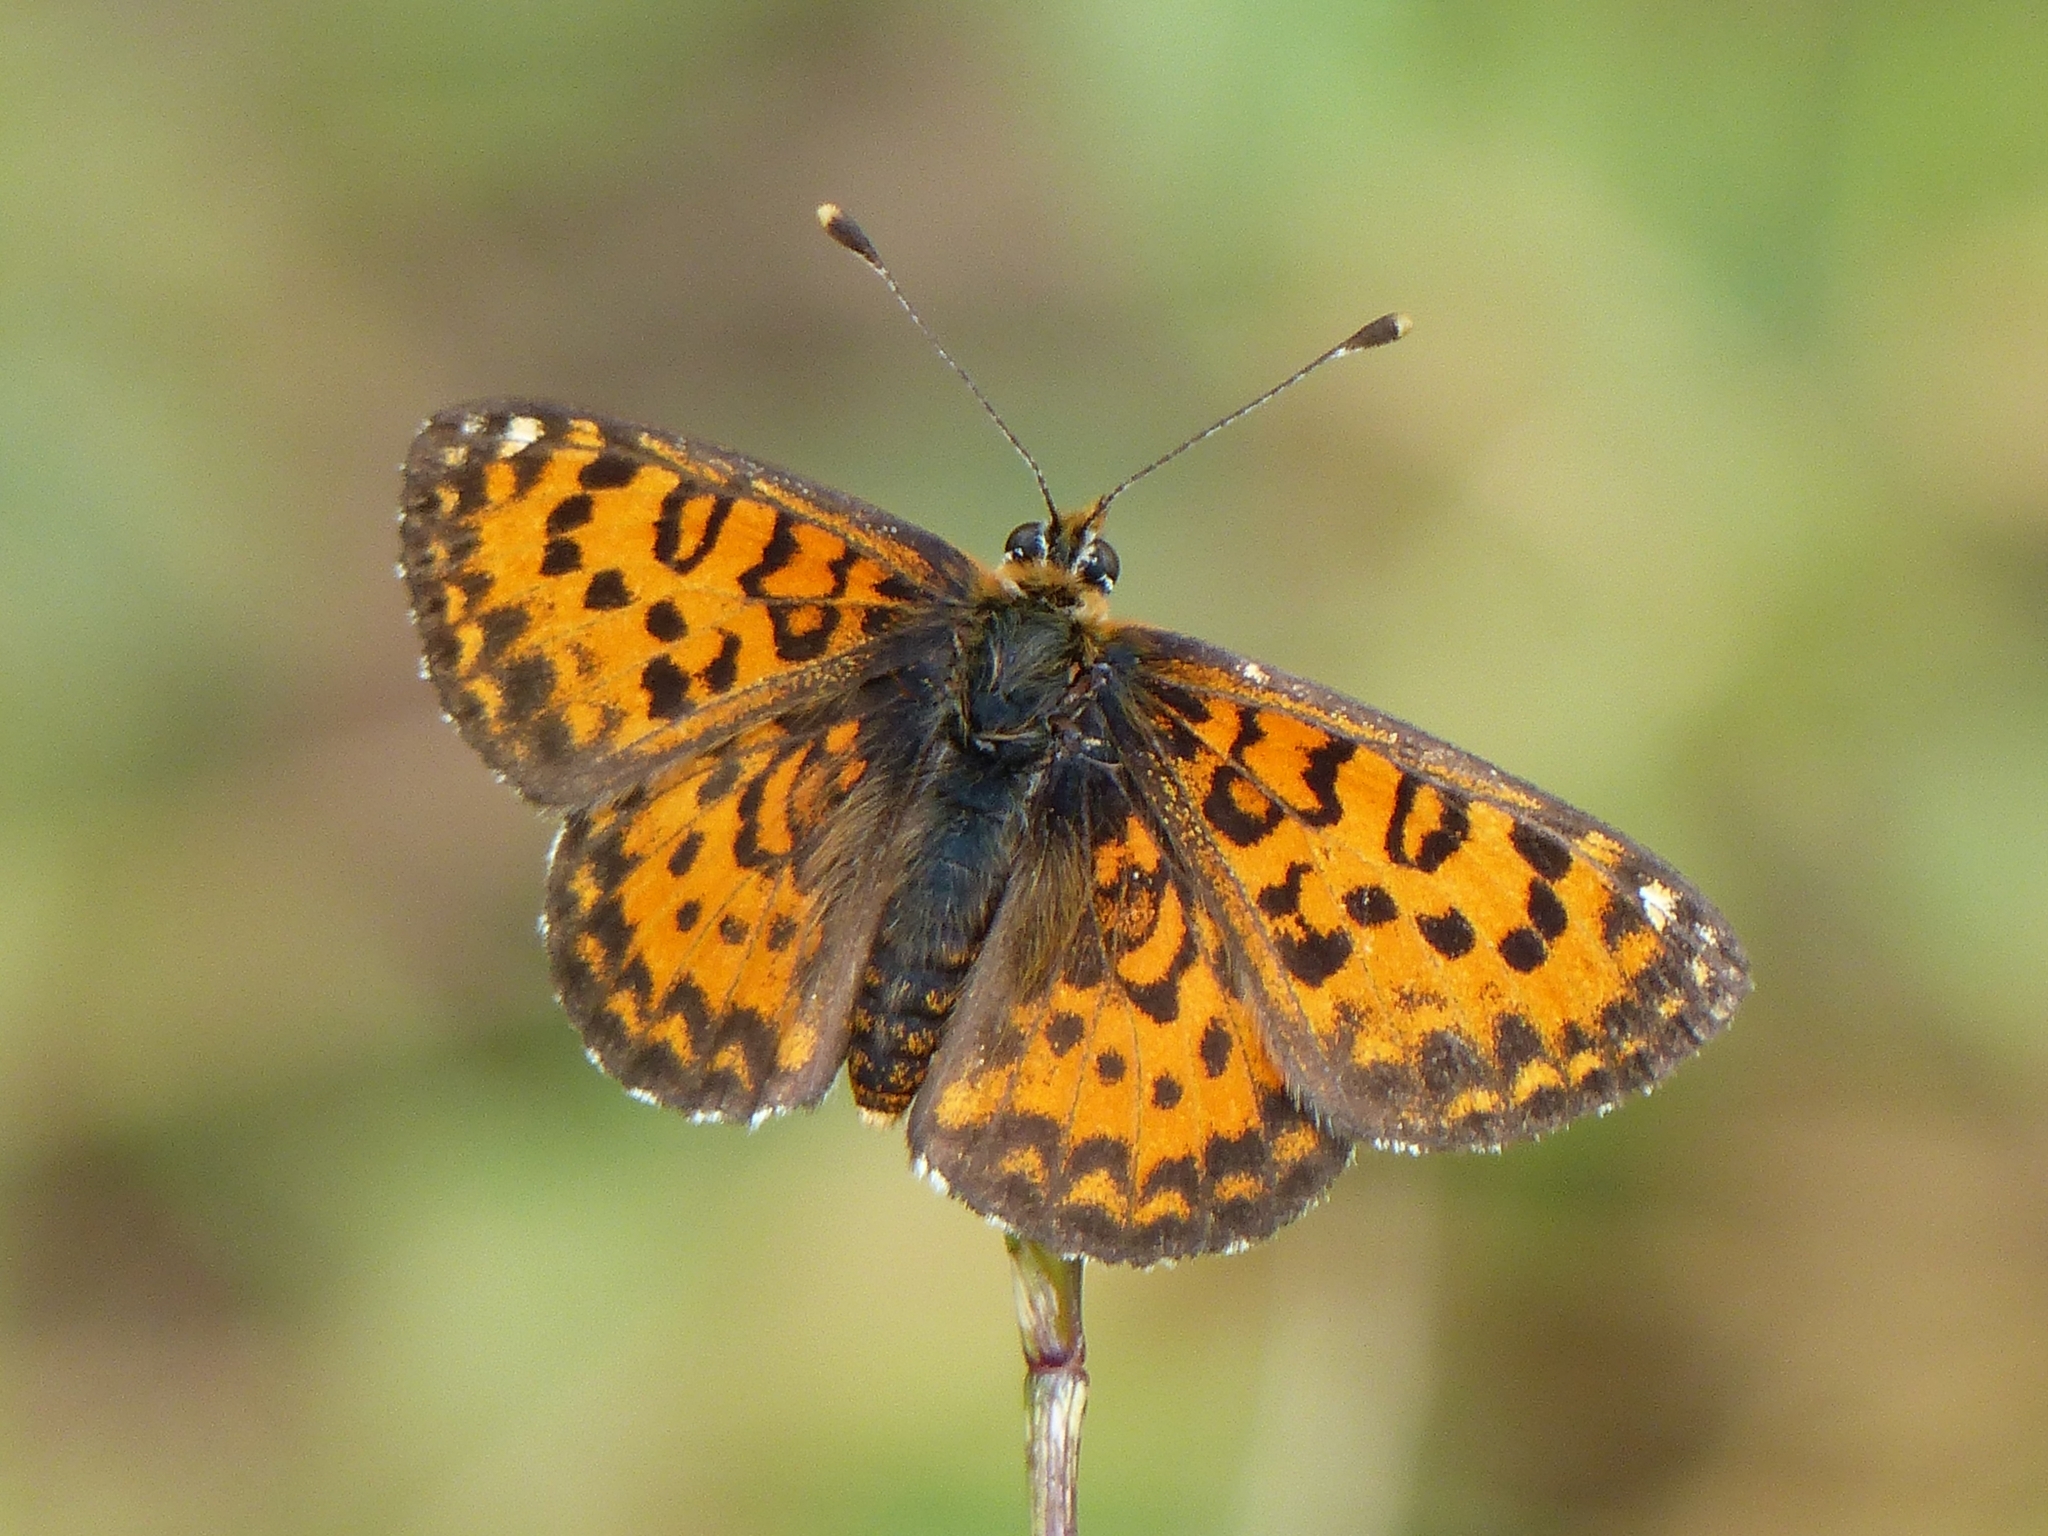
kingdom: Animalia
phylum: Arthropoda
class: Insecta
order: Lepidoptera
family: Nymphalidae
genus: Melitaea
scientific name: Melitaea trivia
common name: Lesser spotted fritillary
